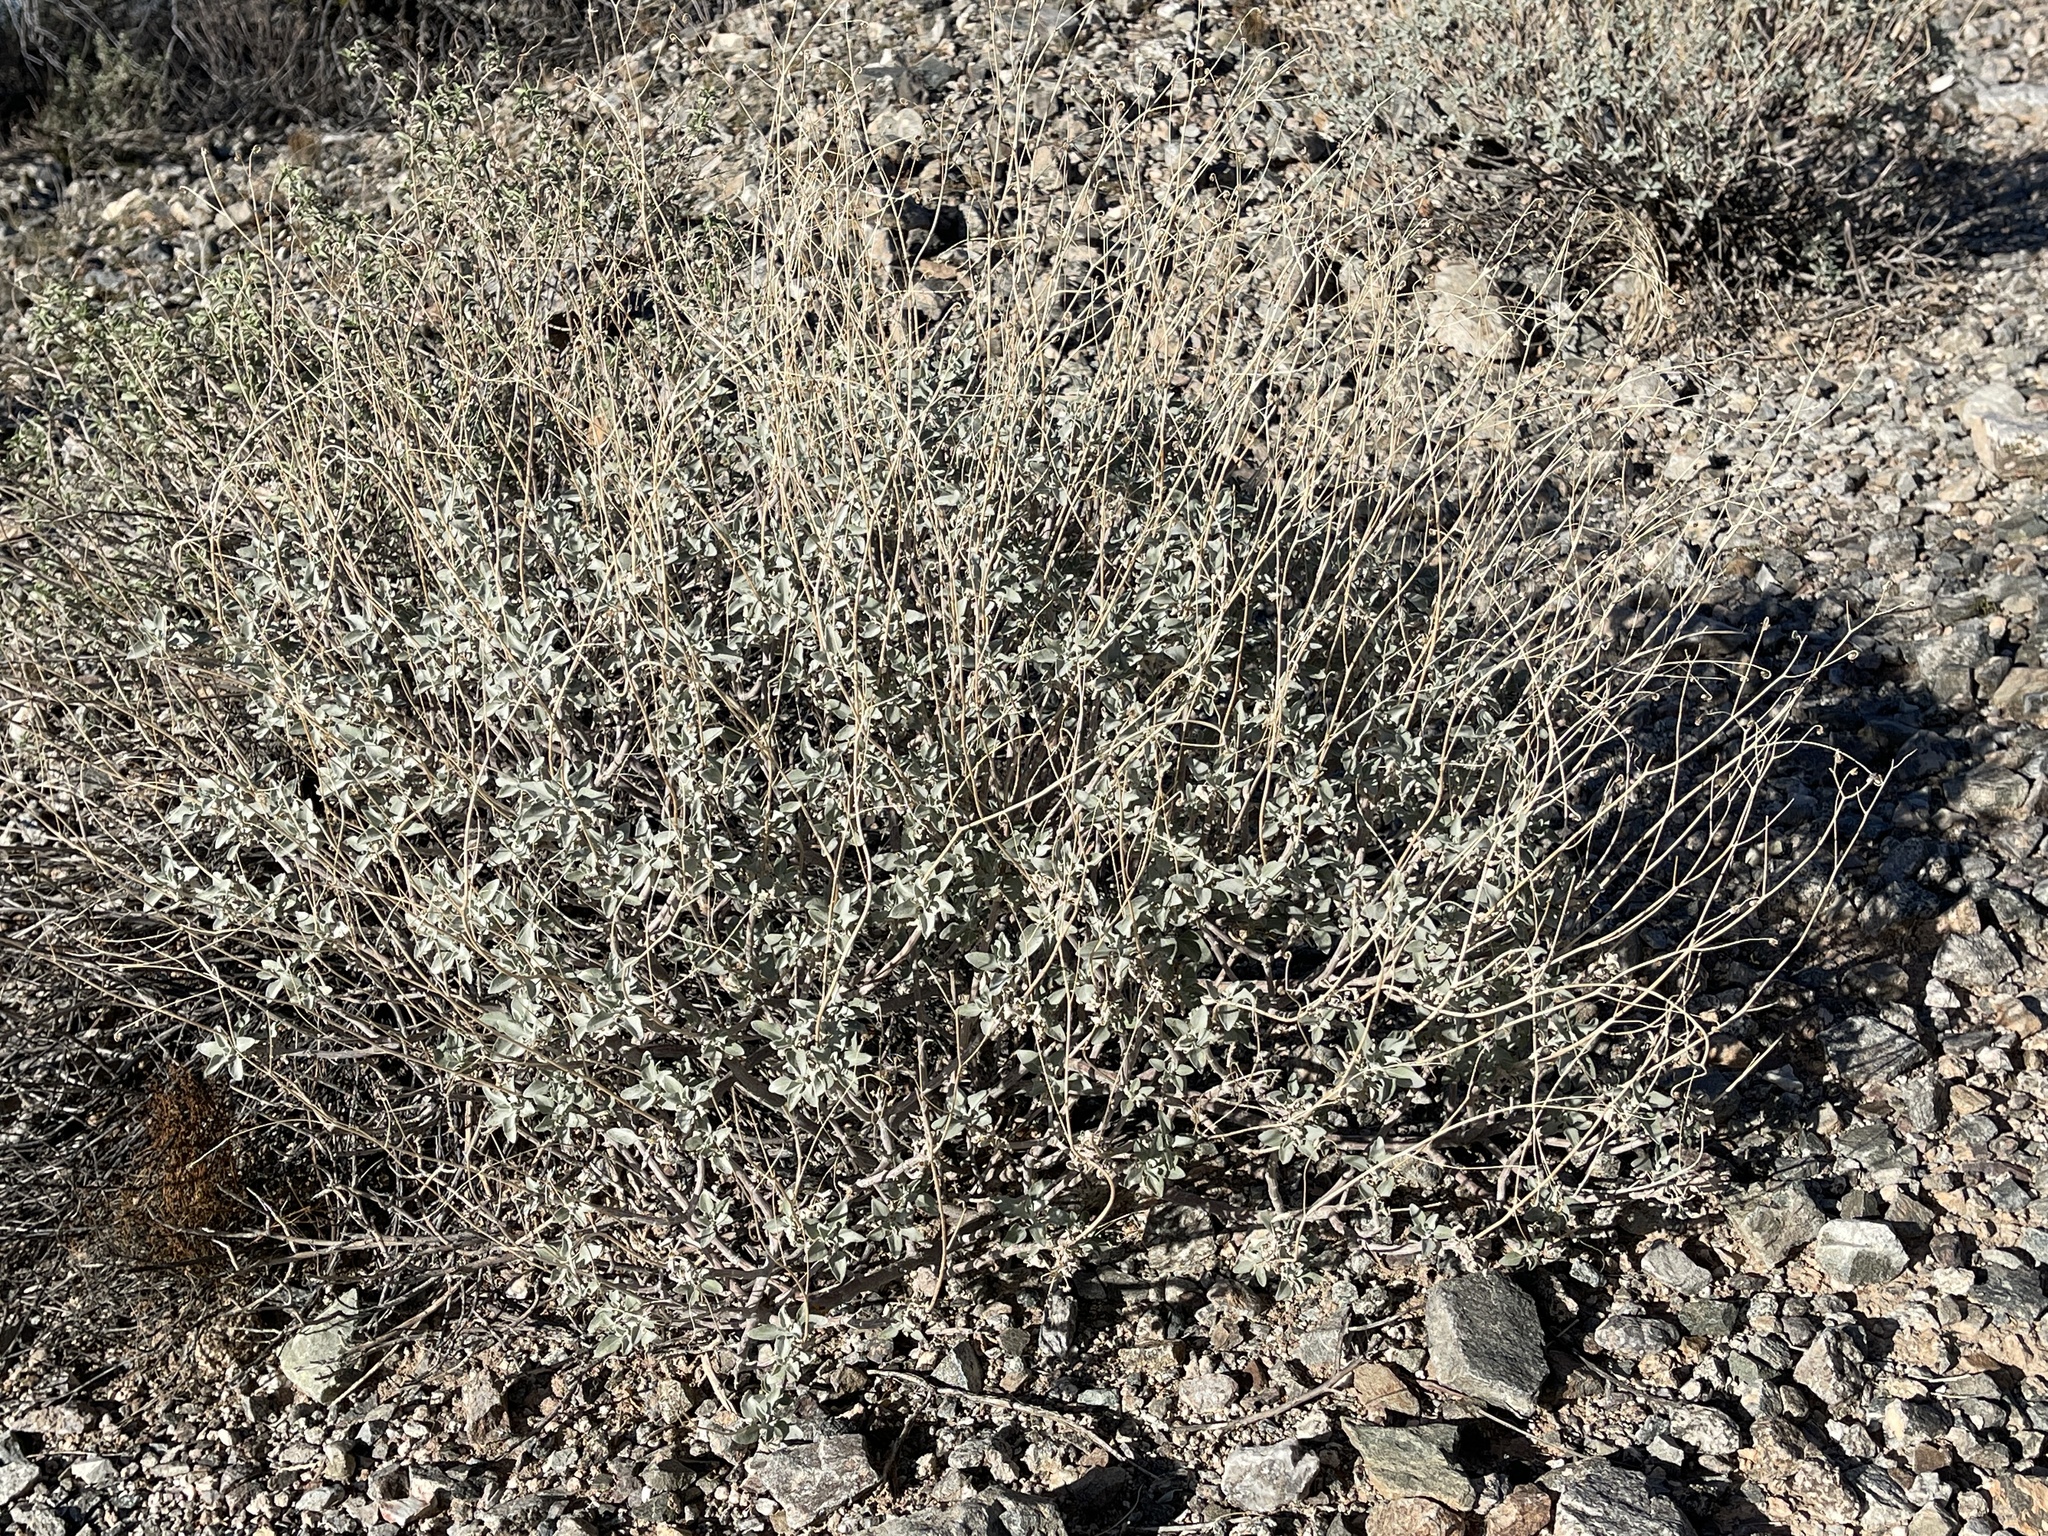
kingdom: Plantae
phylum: Tracheophyta
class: Magnoliopsida
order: Asterales
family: Asteraceae
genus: Encelia
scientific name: Encelia farinosa
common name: Brittlebush
